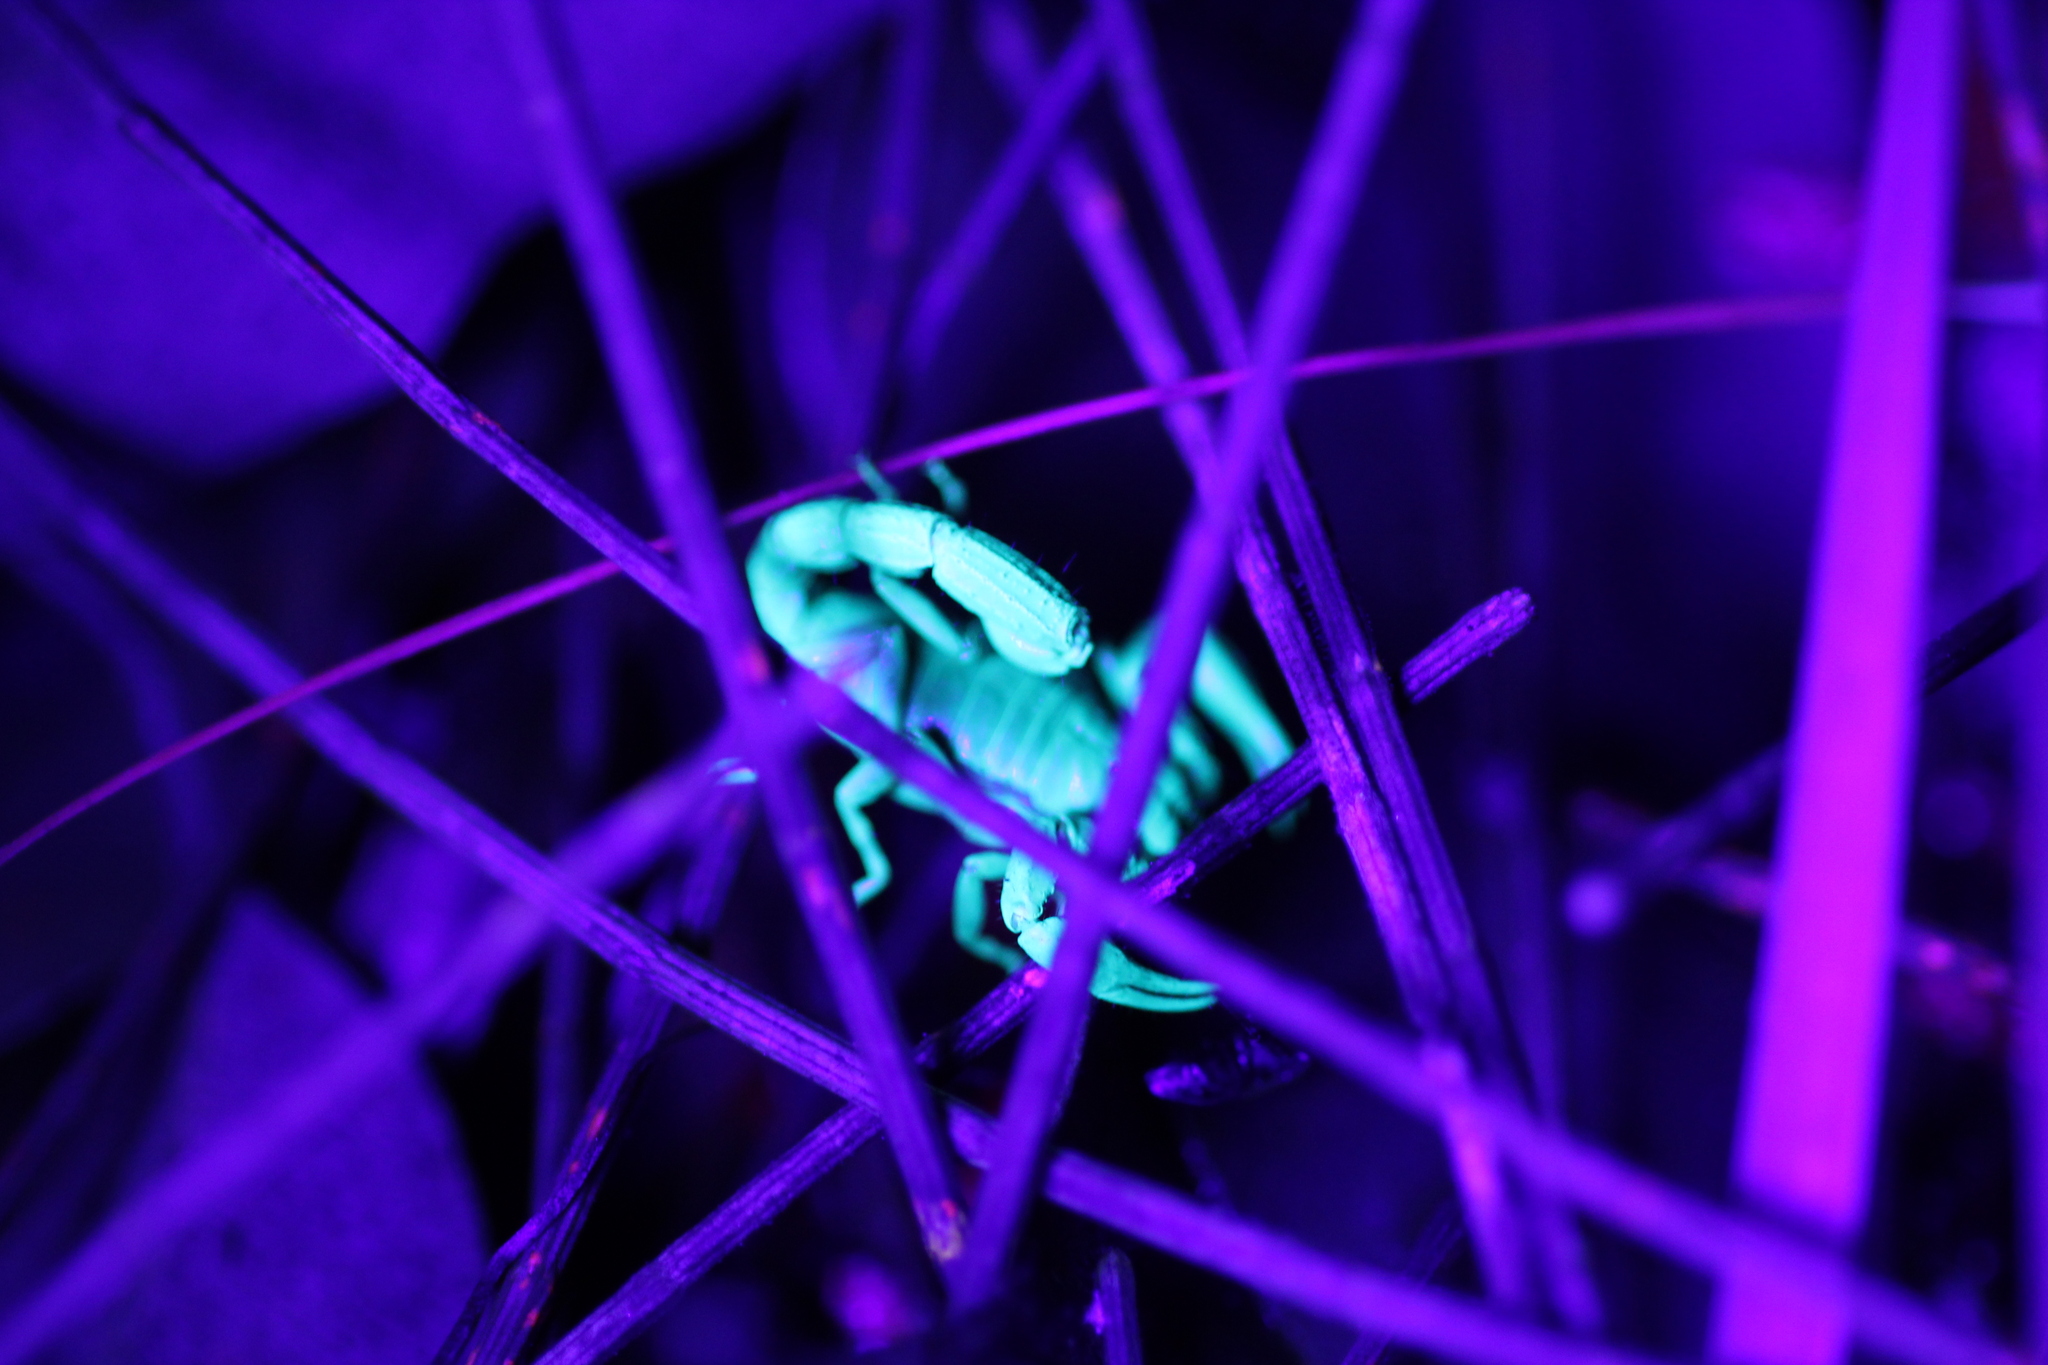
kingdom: Animalia
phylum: Arthropoda
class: Arachnida
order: Scorpiones
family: Bothriuridae
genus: Cercophonius
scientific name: Cercophonius sulcatus
